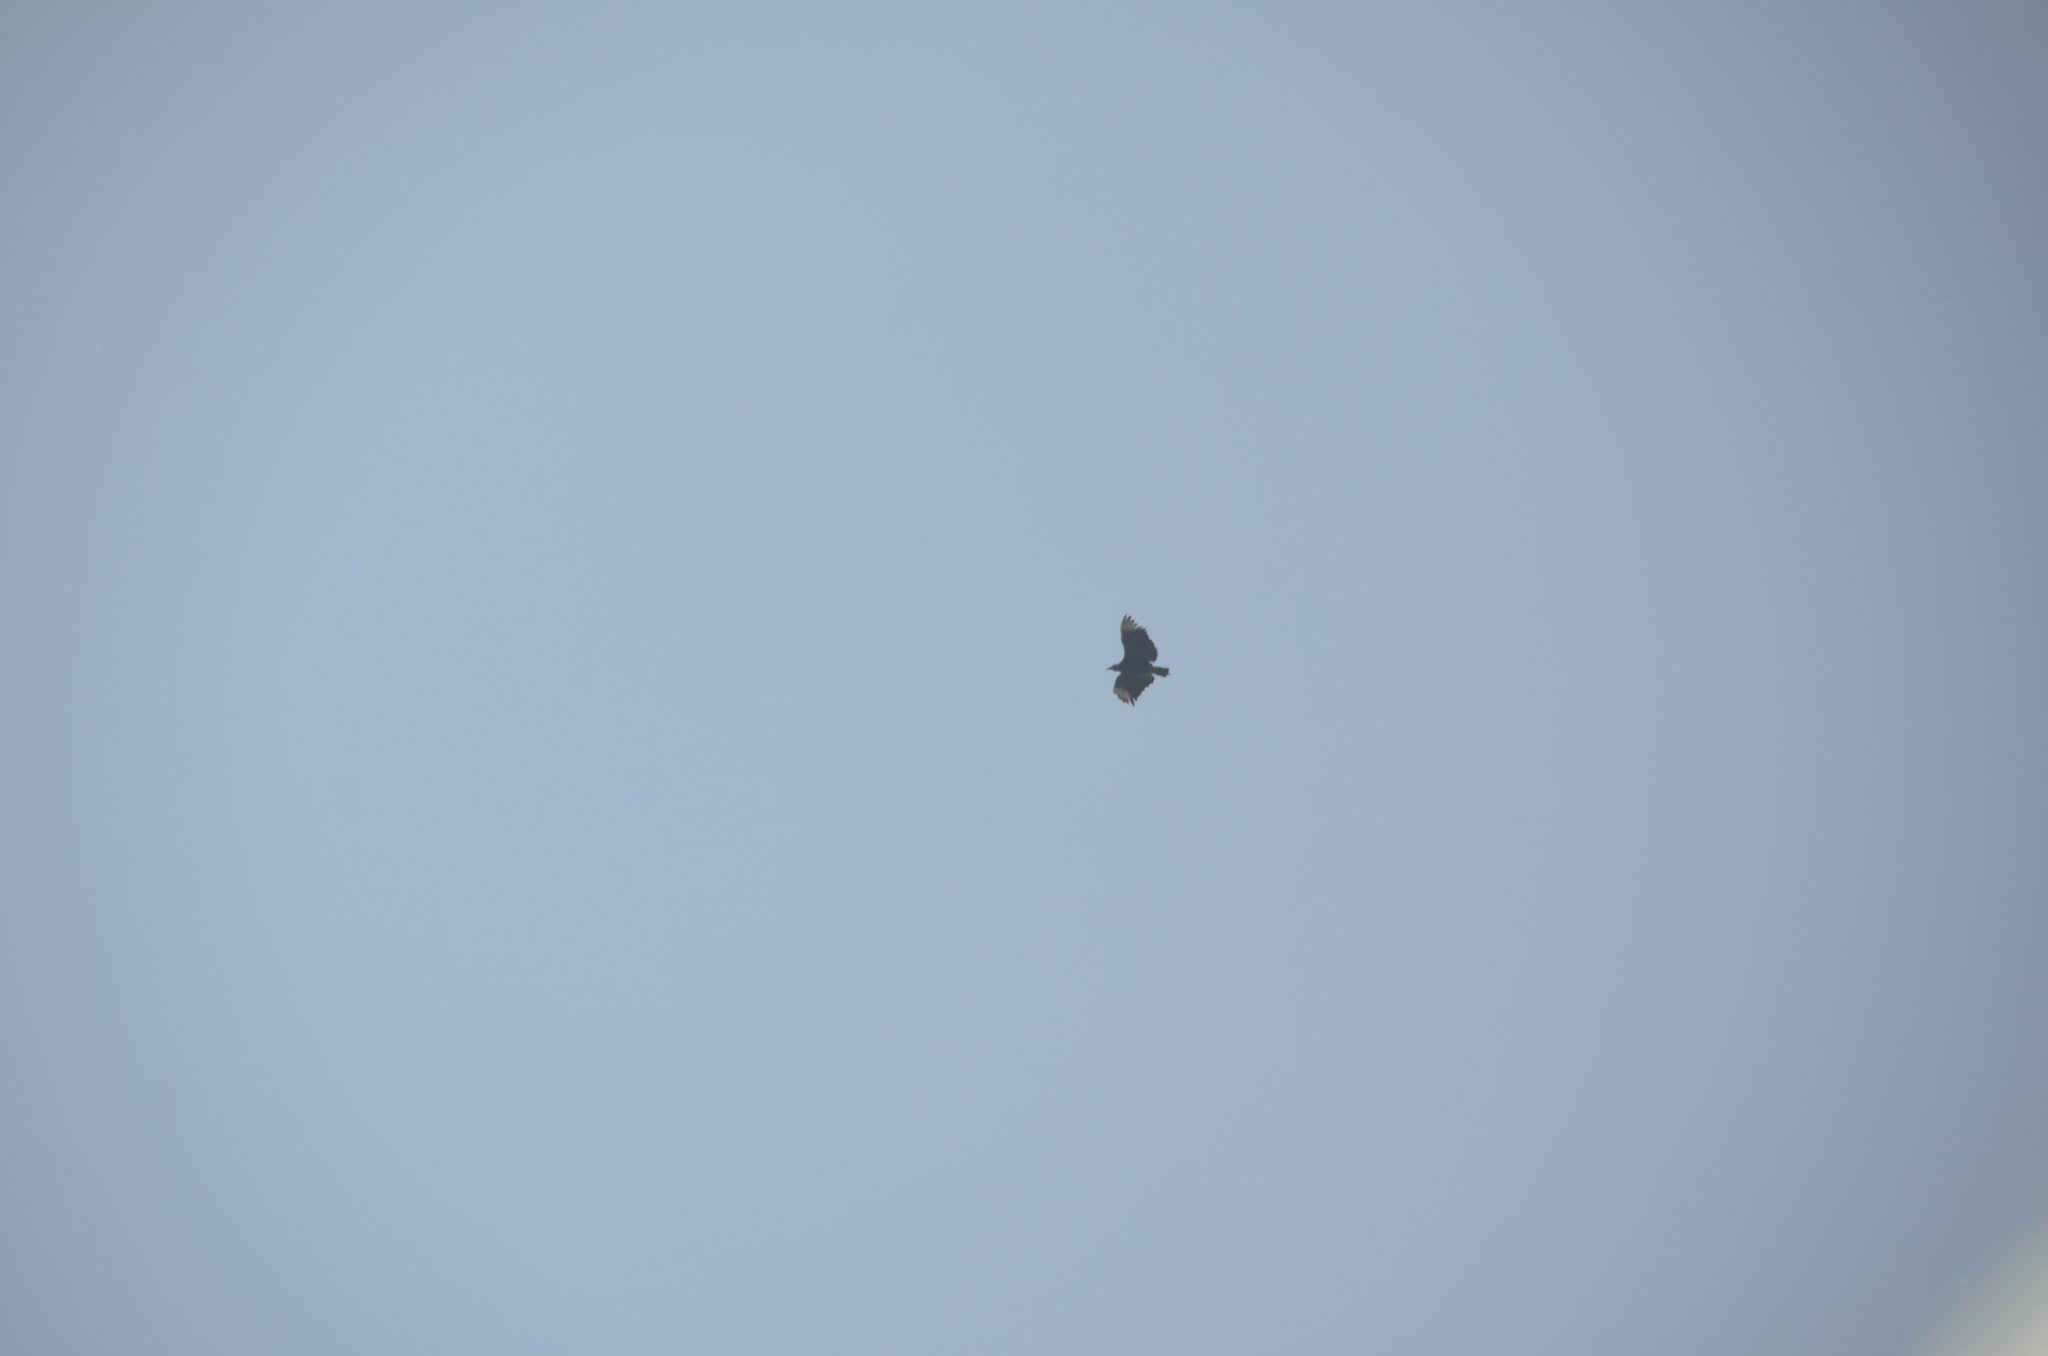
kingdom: Animalia
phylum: Chordata
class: Aves
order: Accipitriformes
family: Cathartidae
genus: Coragyps
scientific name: Coragyps atratus
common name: Black vulture
